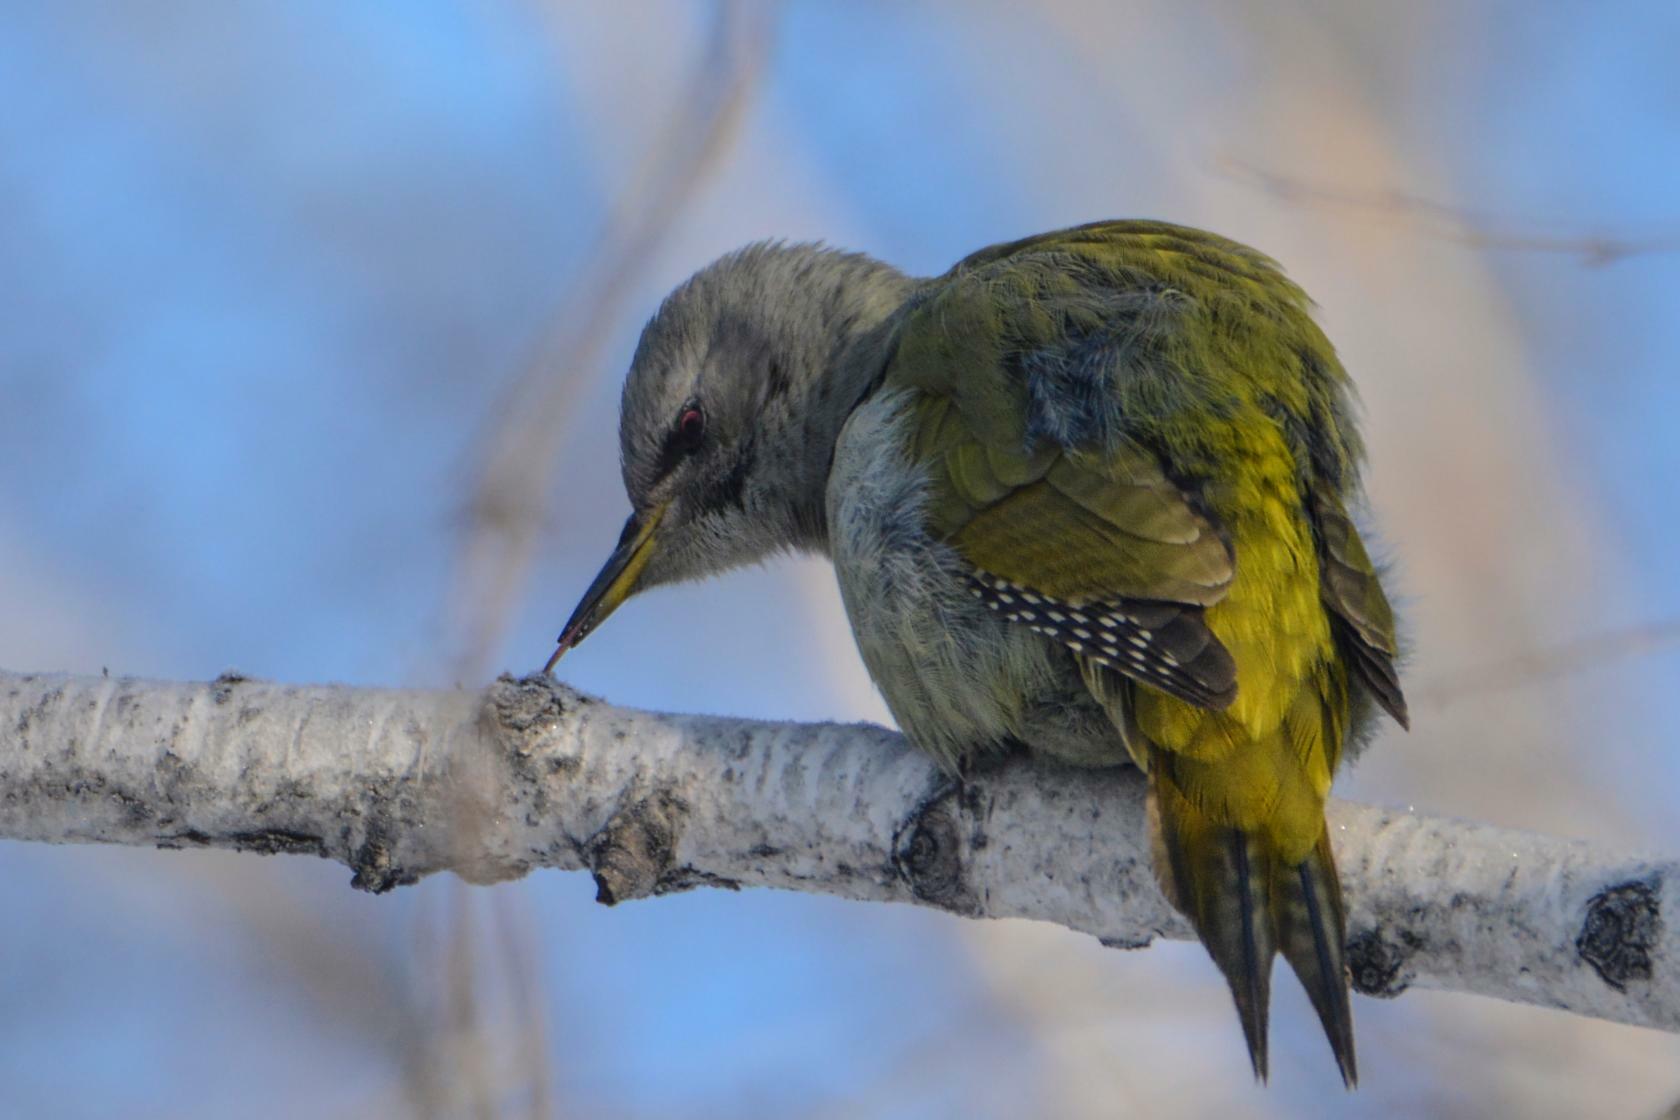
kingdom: Animalia
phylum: Chordata
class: Aves
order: Piciformes
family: Picidae
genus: Picus
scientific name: Picus canus
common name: Grey-headed woodpecker
